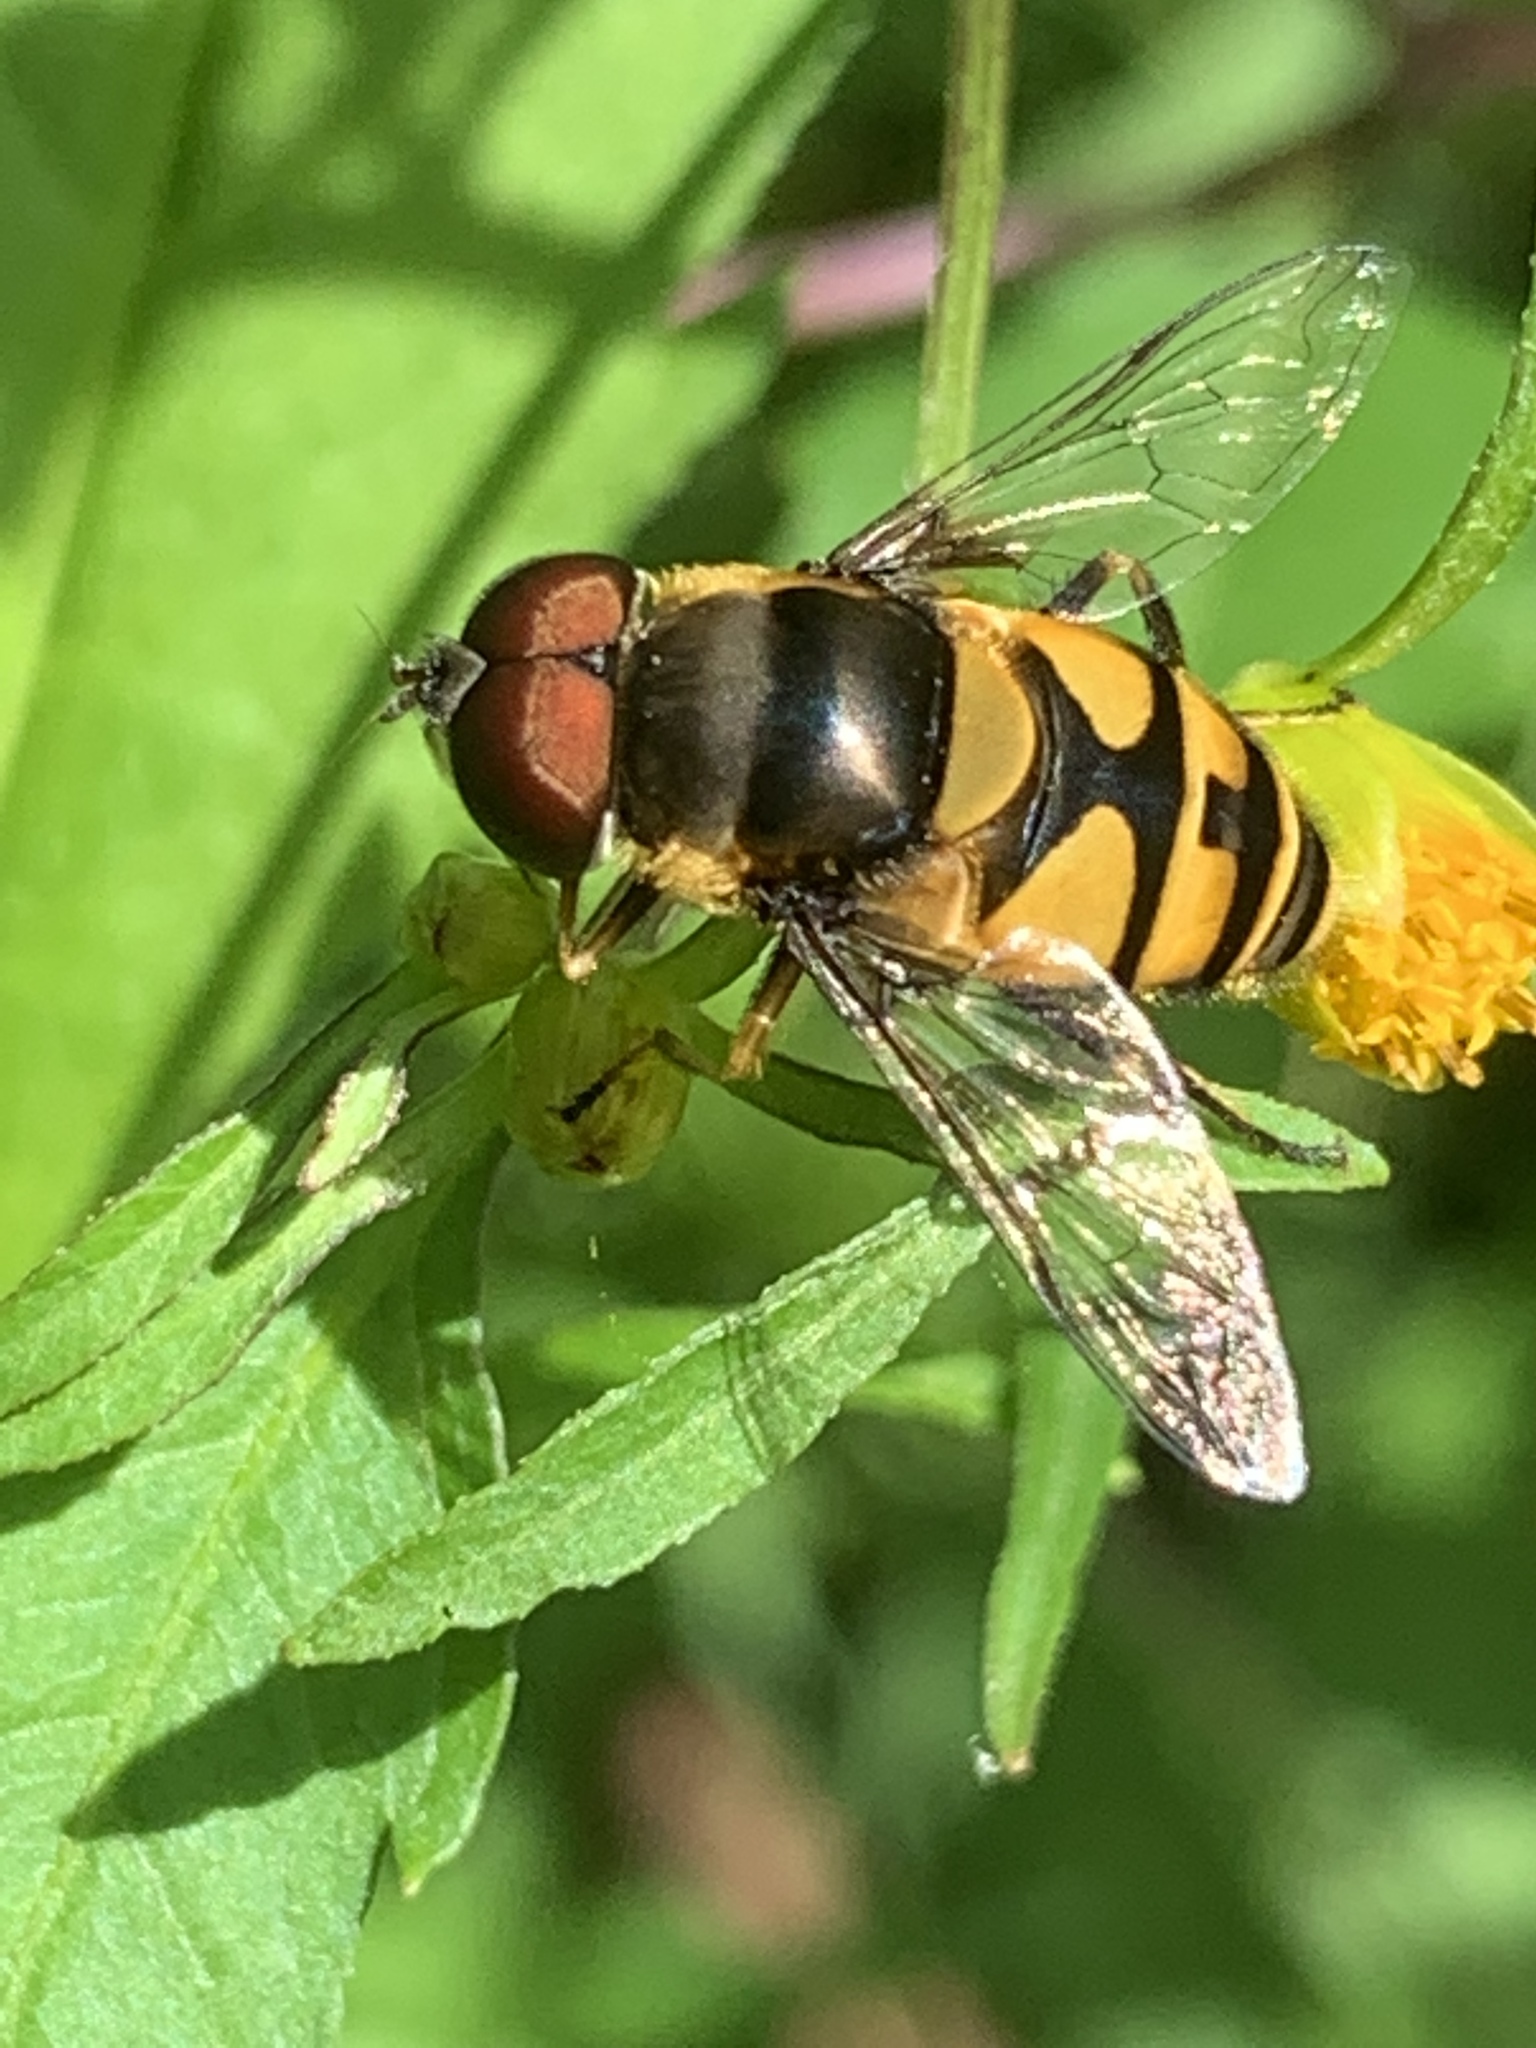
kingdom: Animalia
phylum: Arthropoda
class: Insecta
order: Diptera
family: Syrphidae
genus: Eristalis
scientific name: Eristalis transversa
